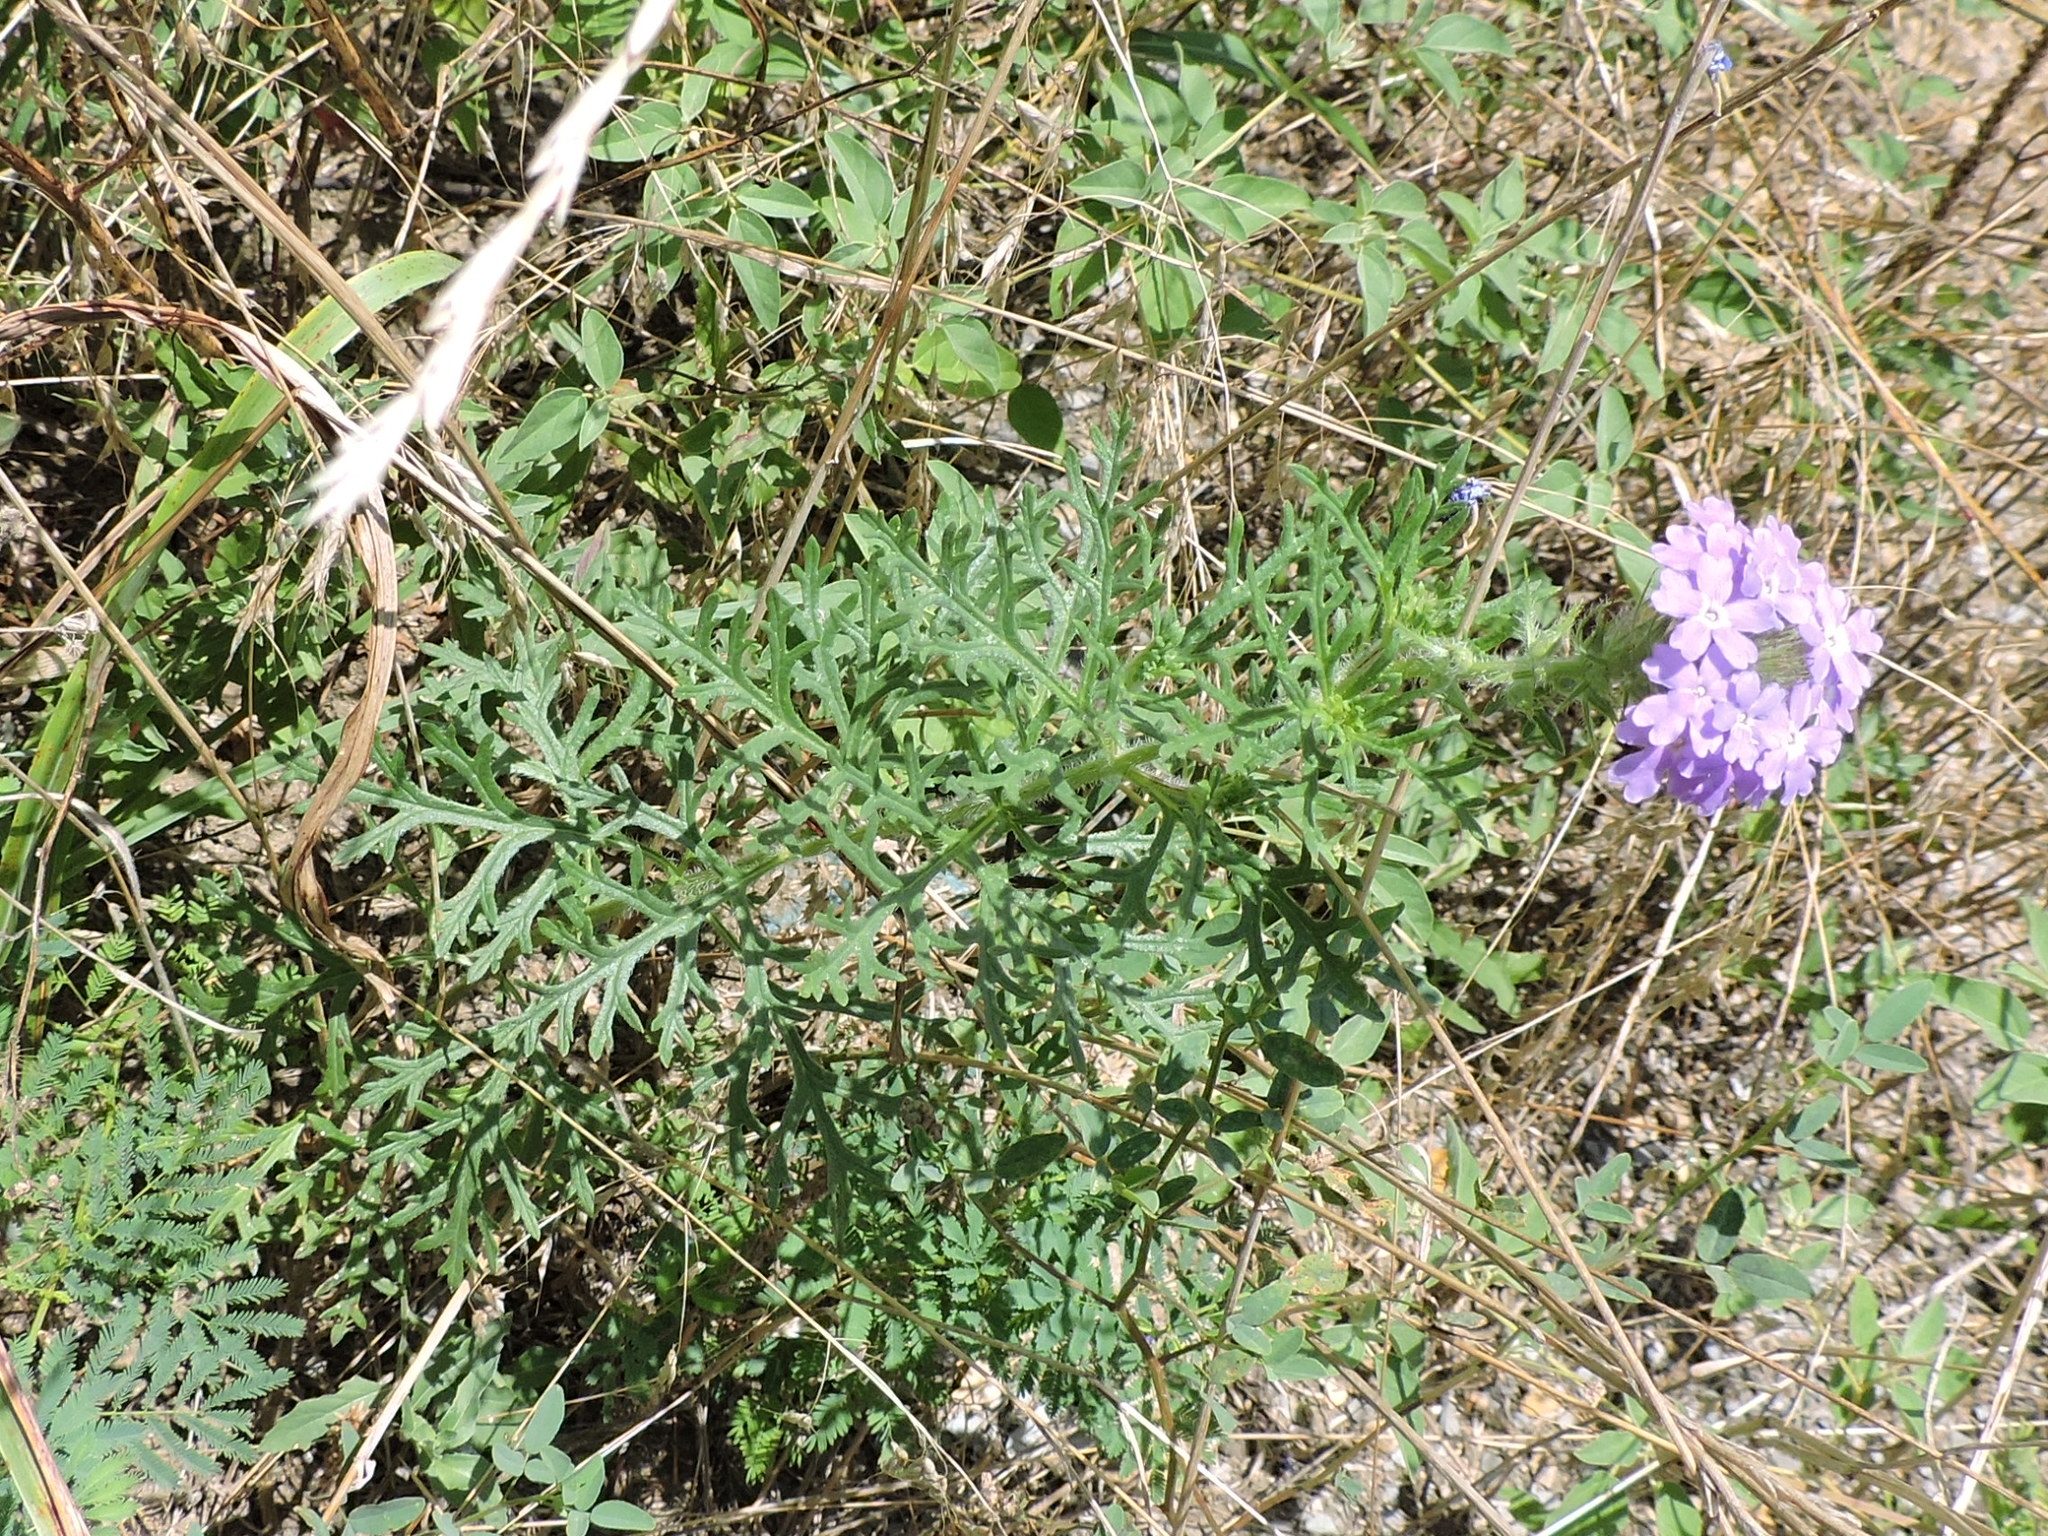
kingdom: Plantae
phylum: Tracheophyta
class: Magnoliopsida
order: Lamiales
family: Verbenaceae
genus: Verbena
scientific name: Verbena bipinnatifida
